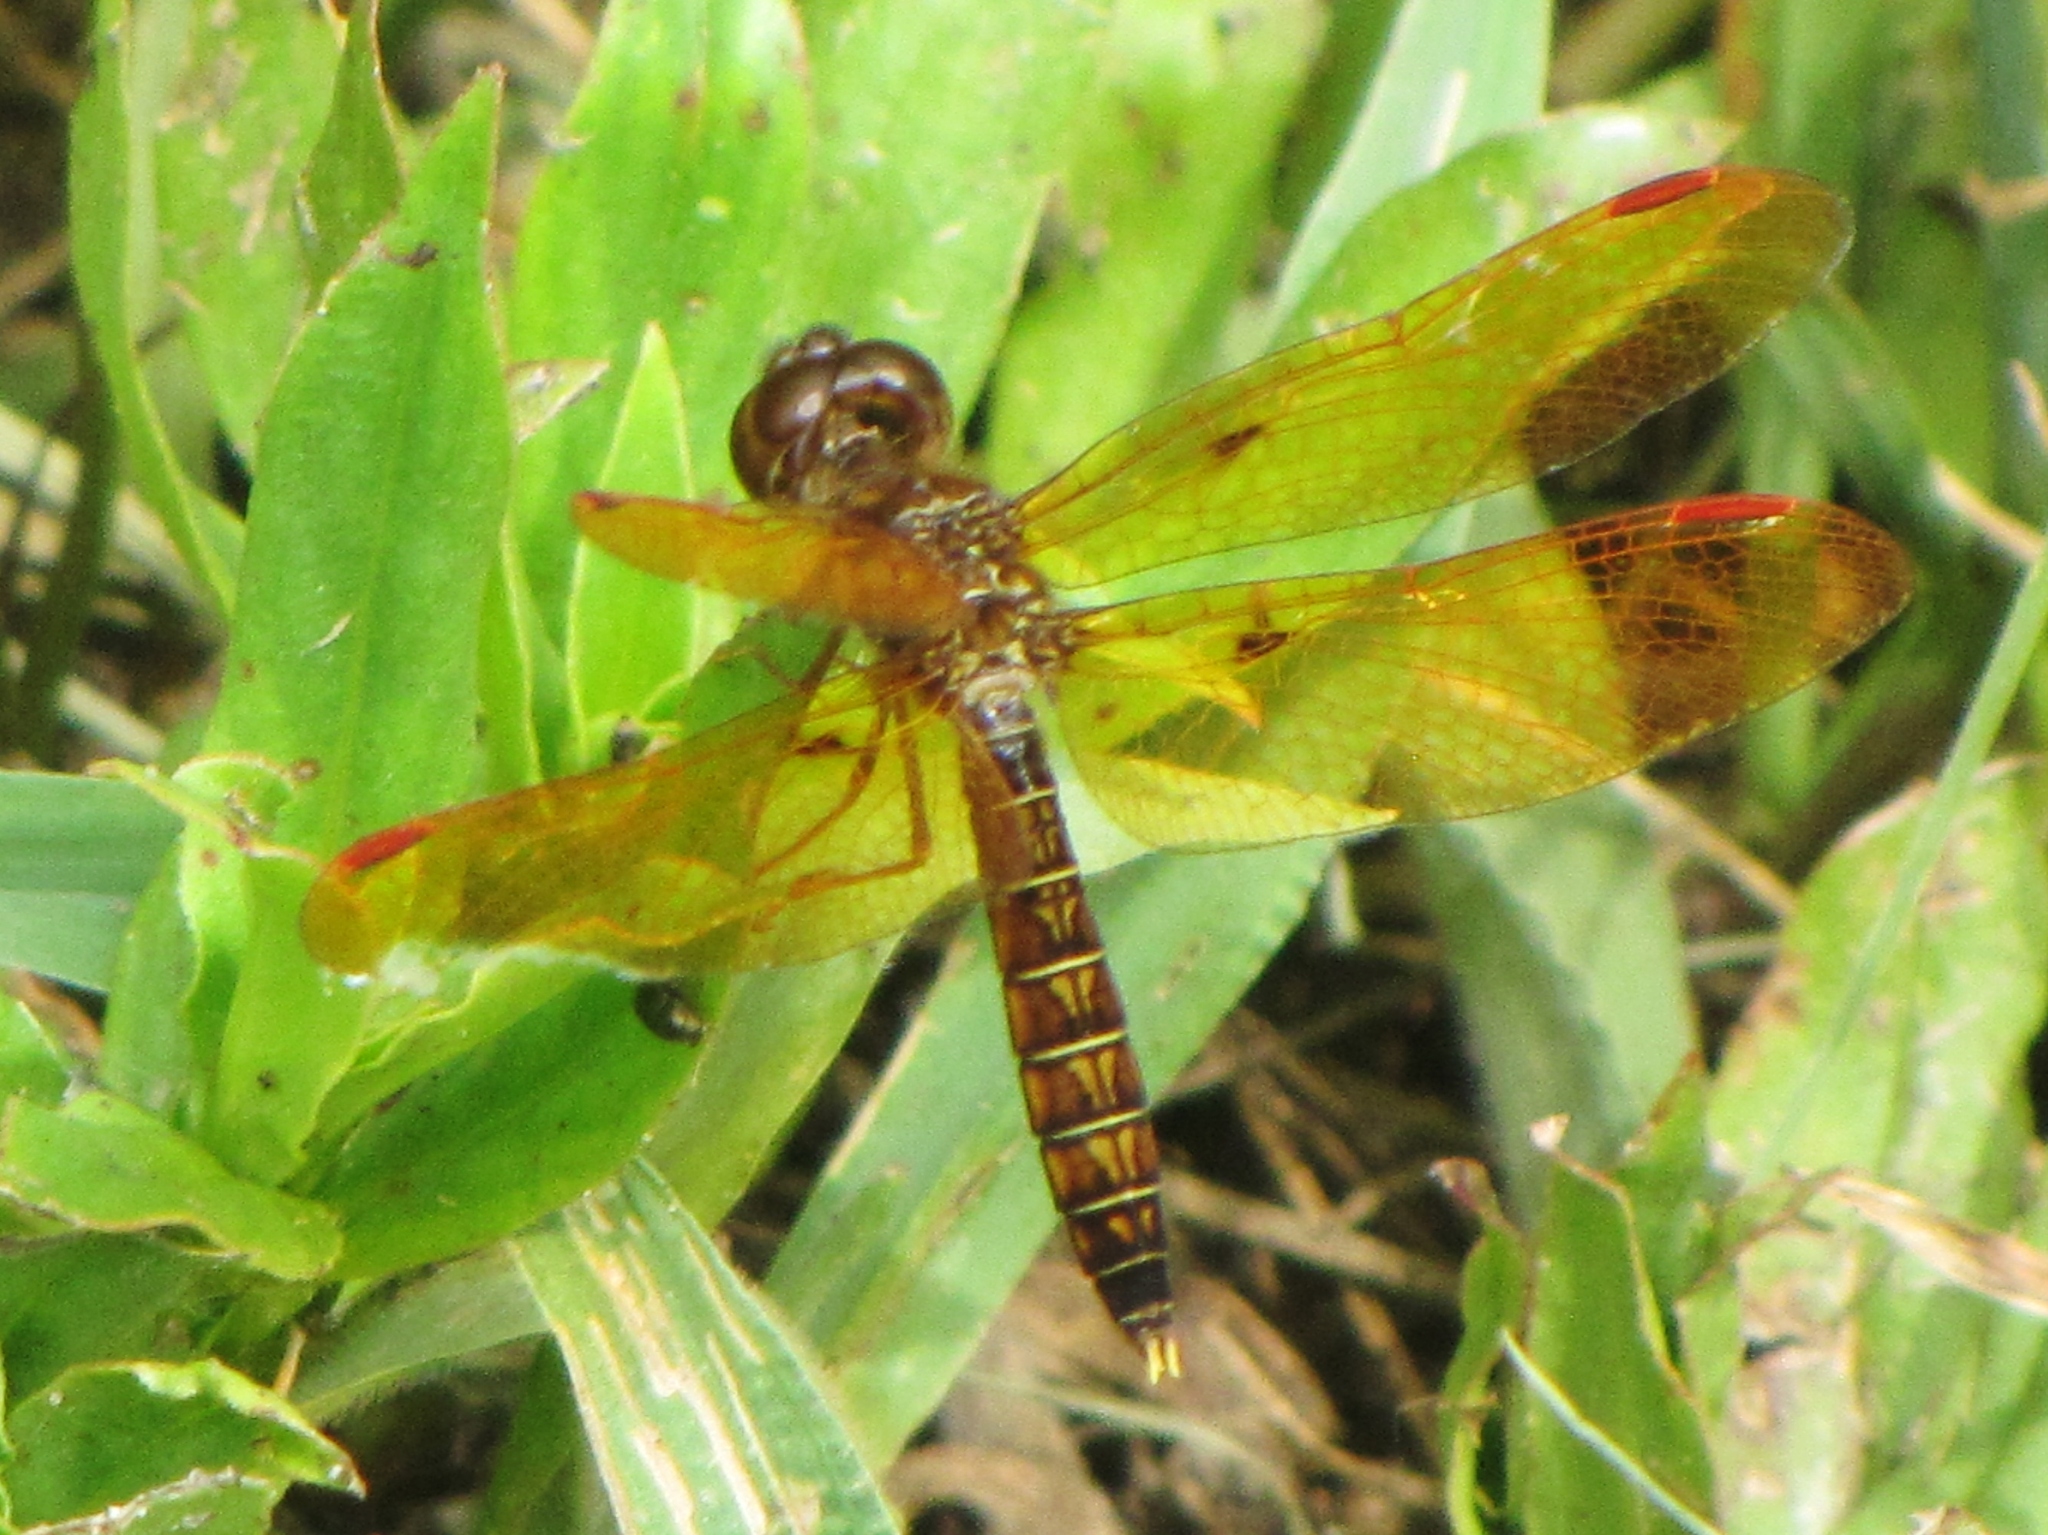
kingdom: Animalia
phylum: Arthropoda
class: Insecta
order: Odonata
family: Libellulidae
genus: Perithemis
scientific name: Perithemis tenera
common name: Eastern amberwing
